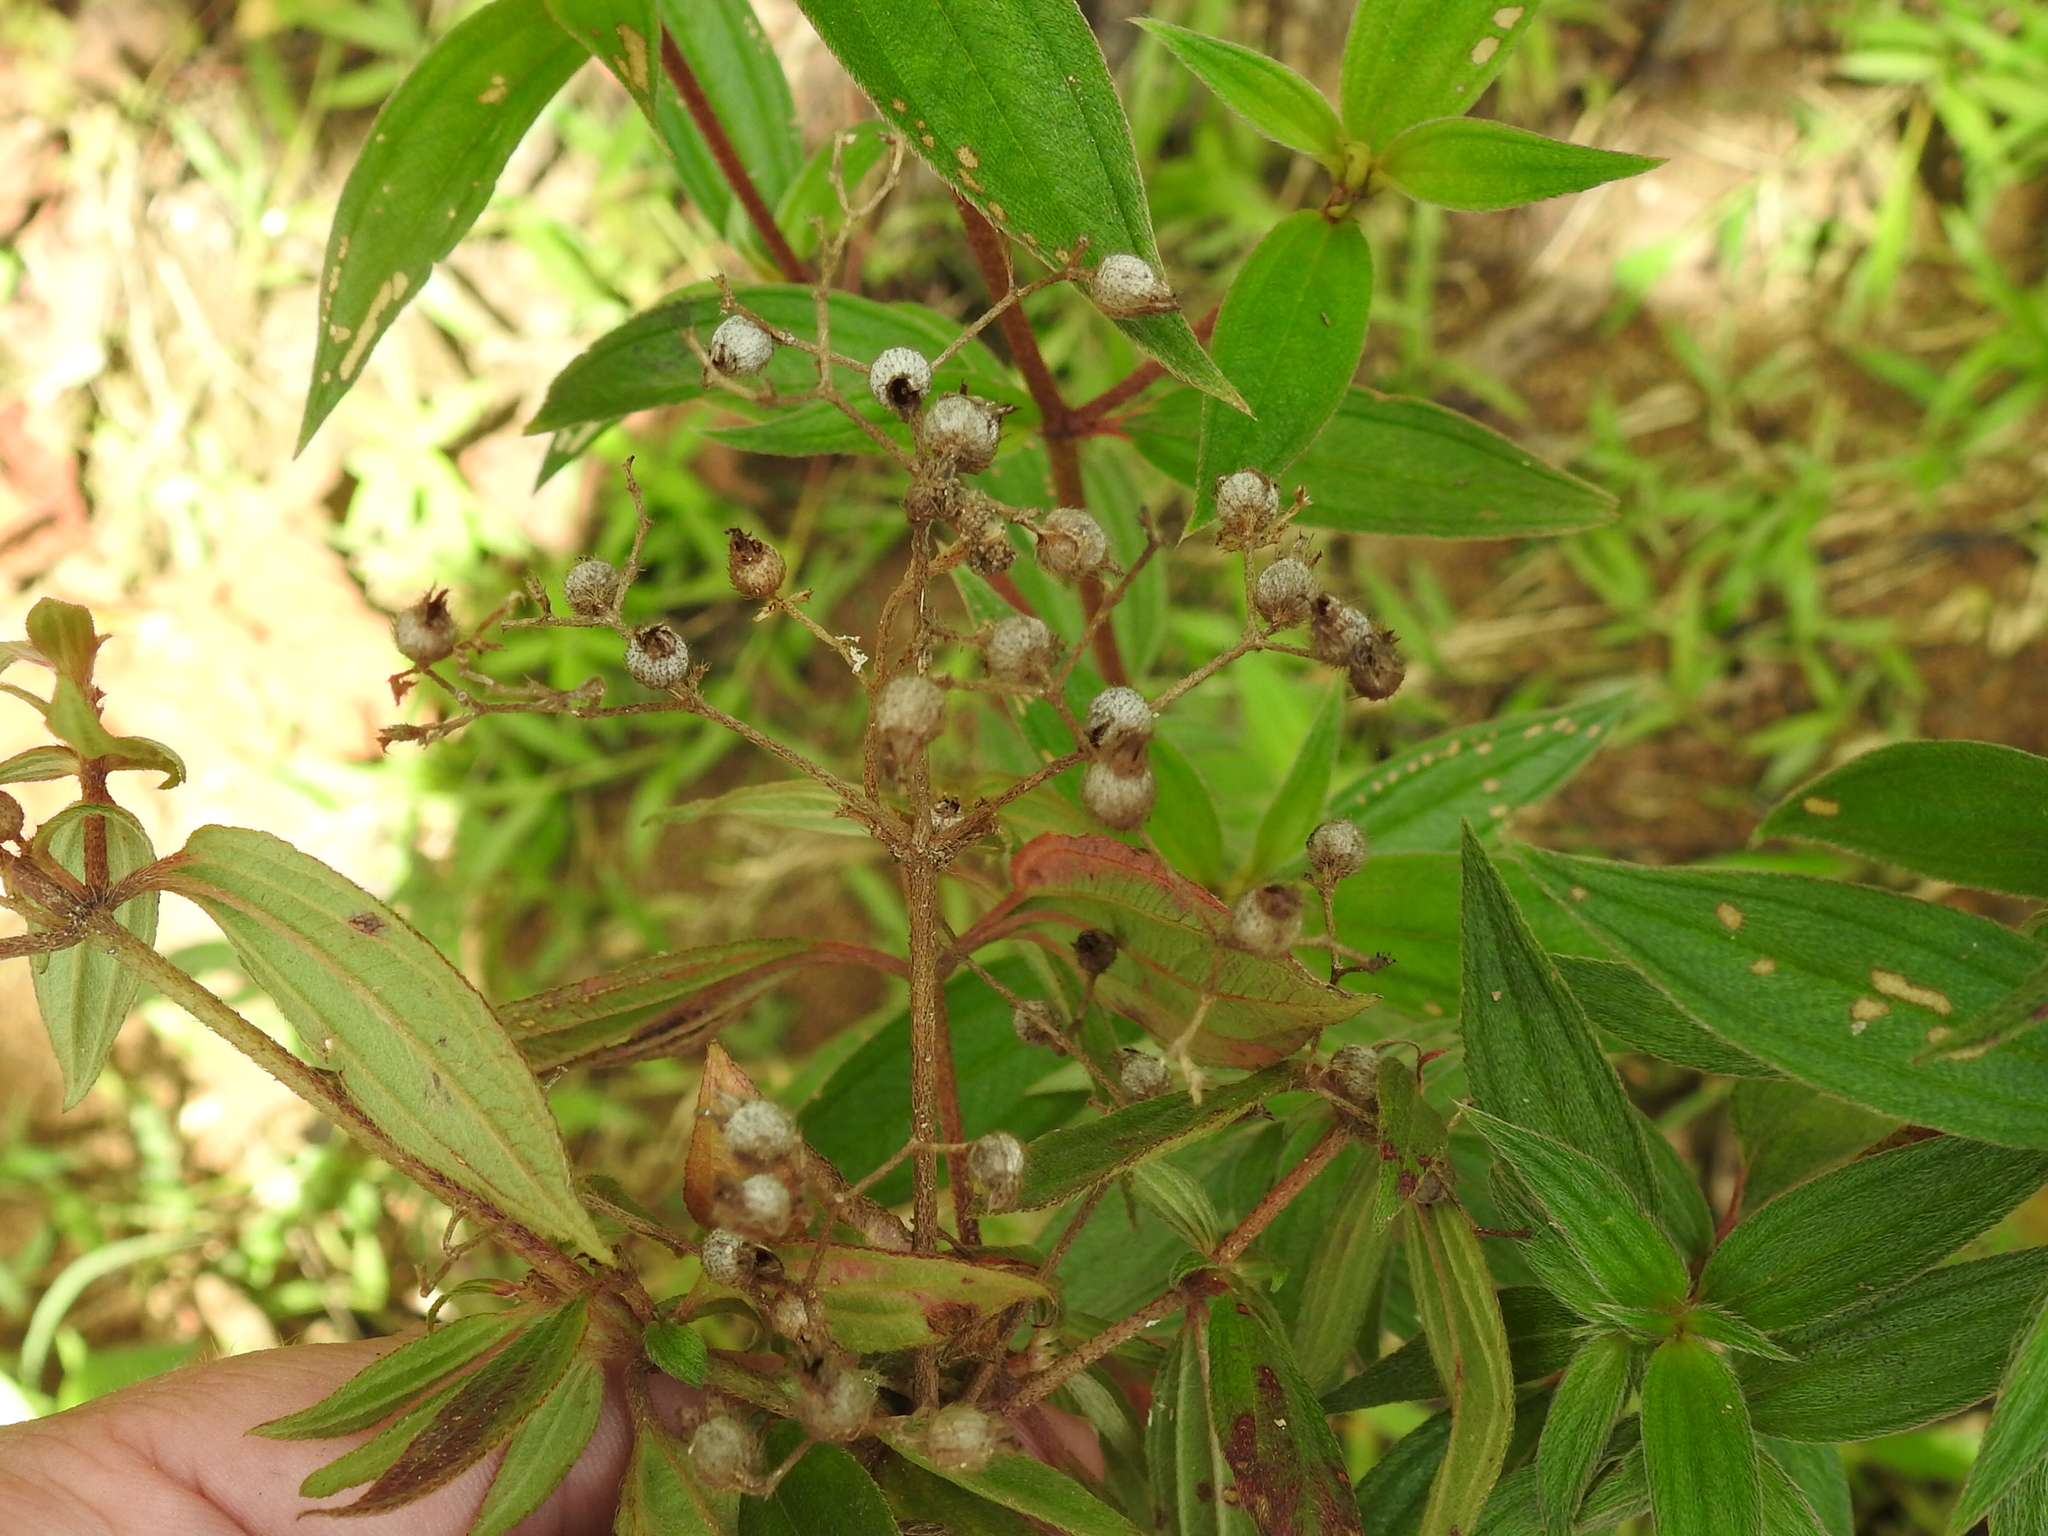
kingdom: Plantae
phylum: Tracheophyta
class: Magnoliopsida
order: Myrtales
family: Melastomataceae
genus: Chaetogastra
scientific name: Chaetogastra longifolia
